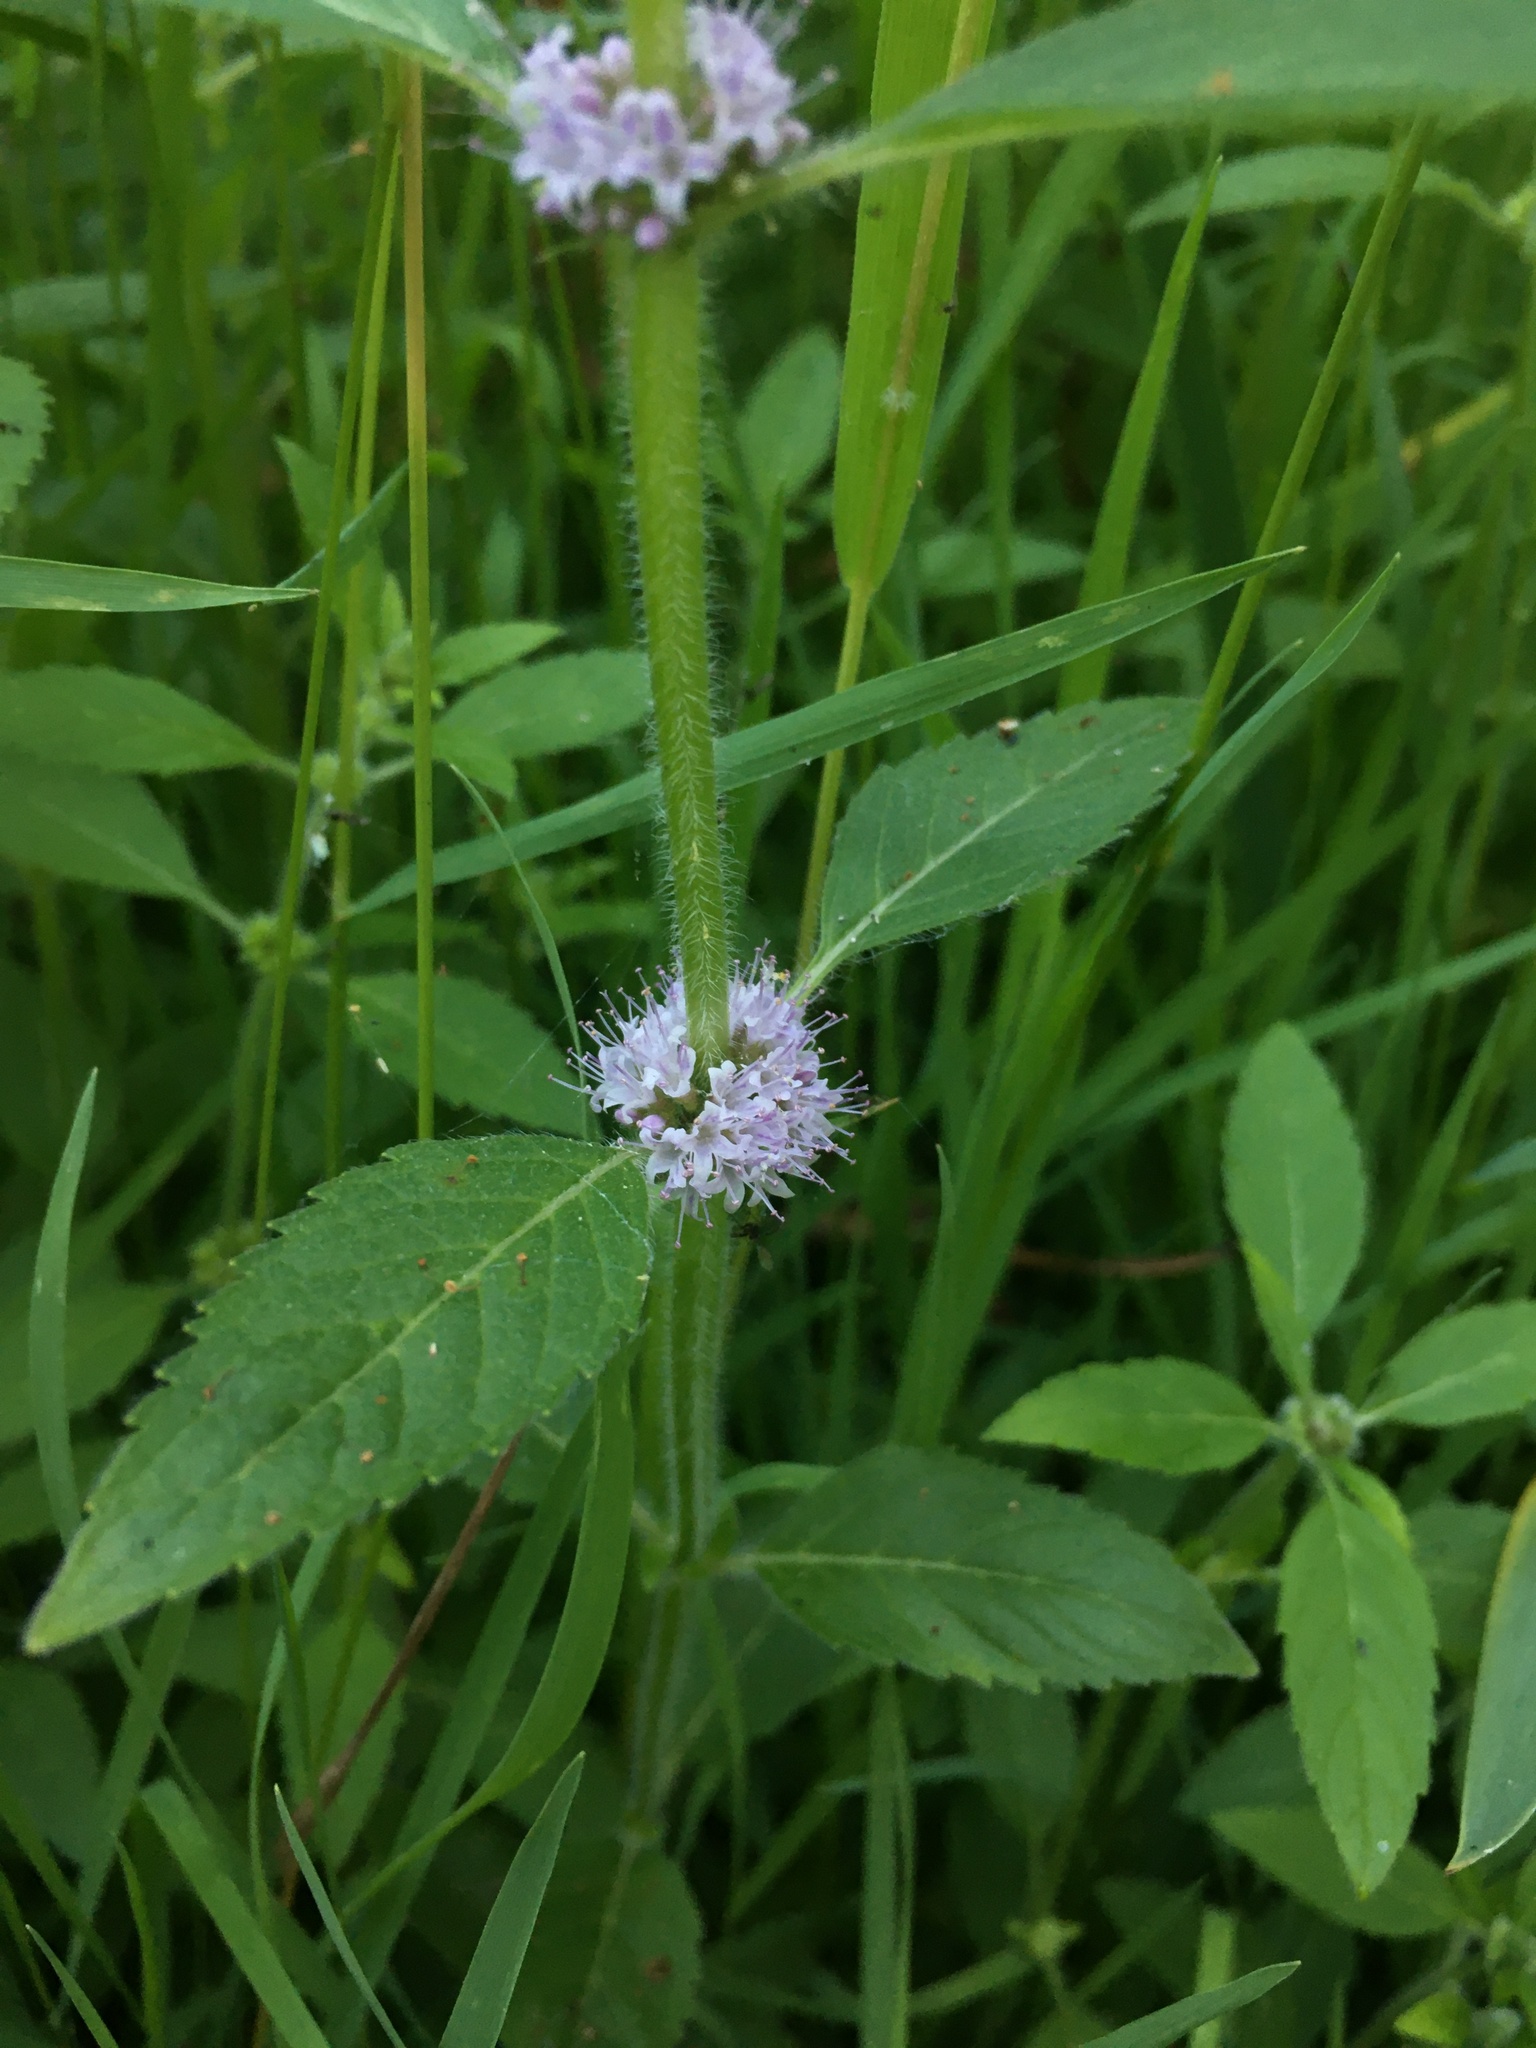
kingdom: Plantae
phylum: Tracheophyta
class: Magnoliopsida
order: Lamiales
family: Lamiaceae
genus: Mentha
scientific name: Mentha canadensis
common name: American corn mint
